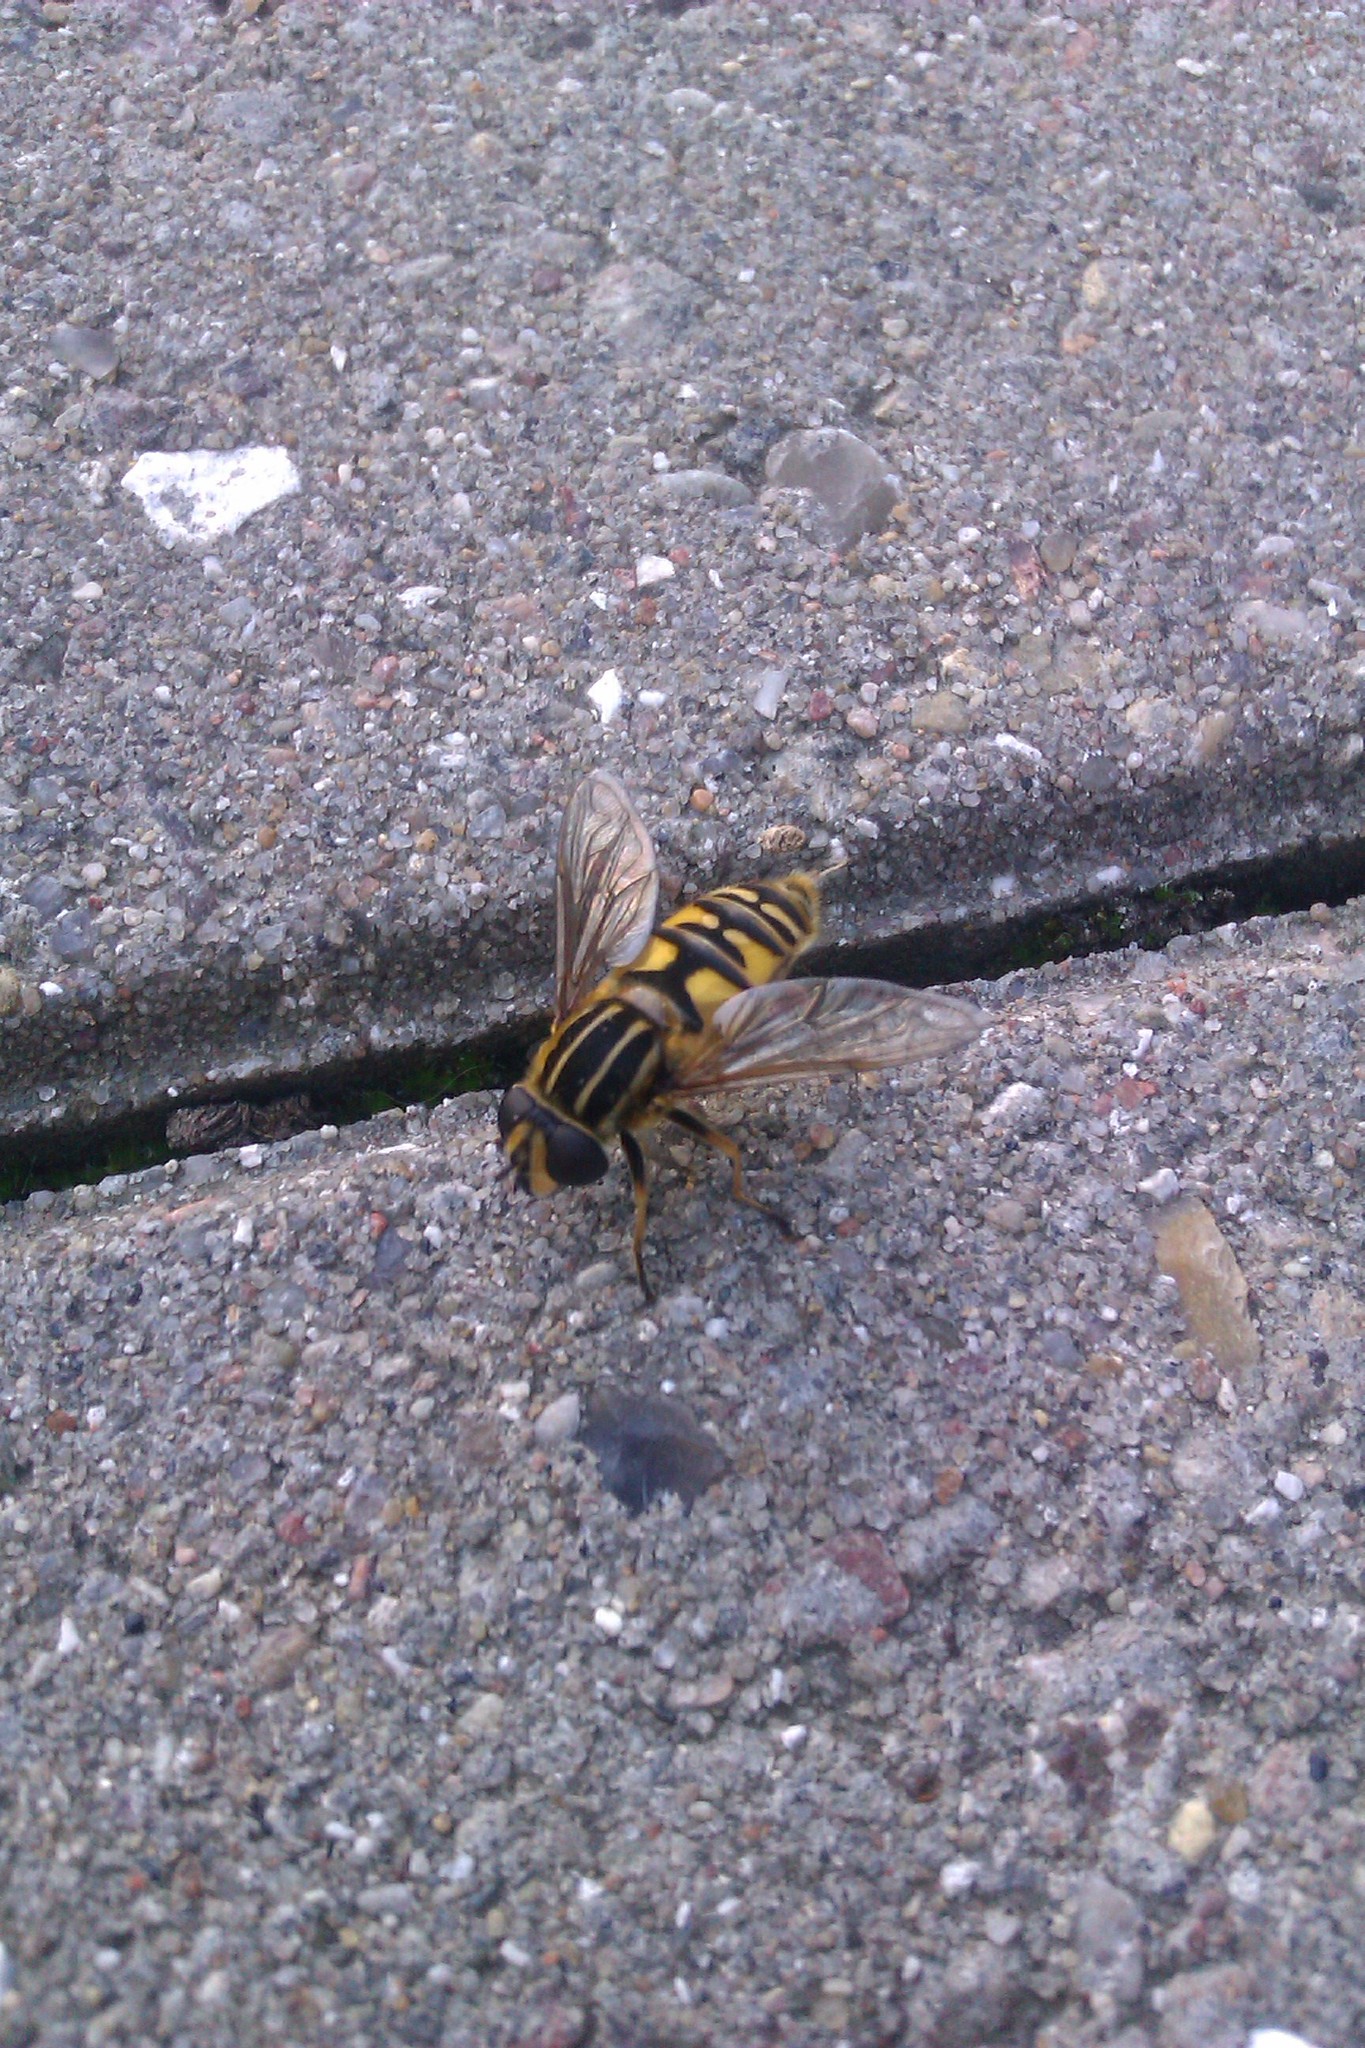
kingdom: Animalia
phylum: Arthropoda
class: Insecta
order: Diptera
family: Syrphidae
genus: Helophilus
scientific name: Helophilus pendulus
